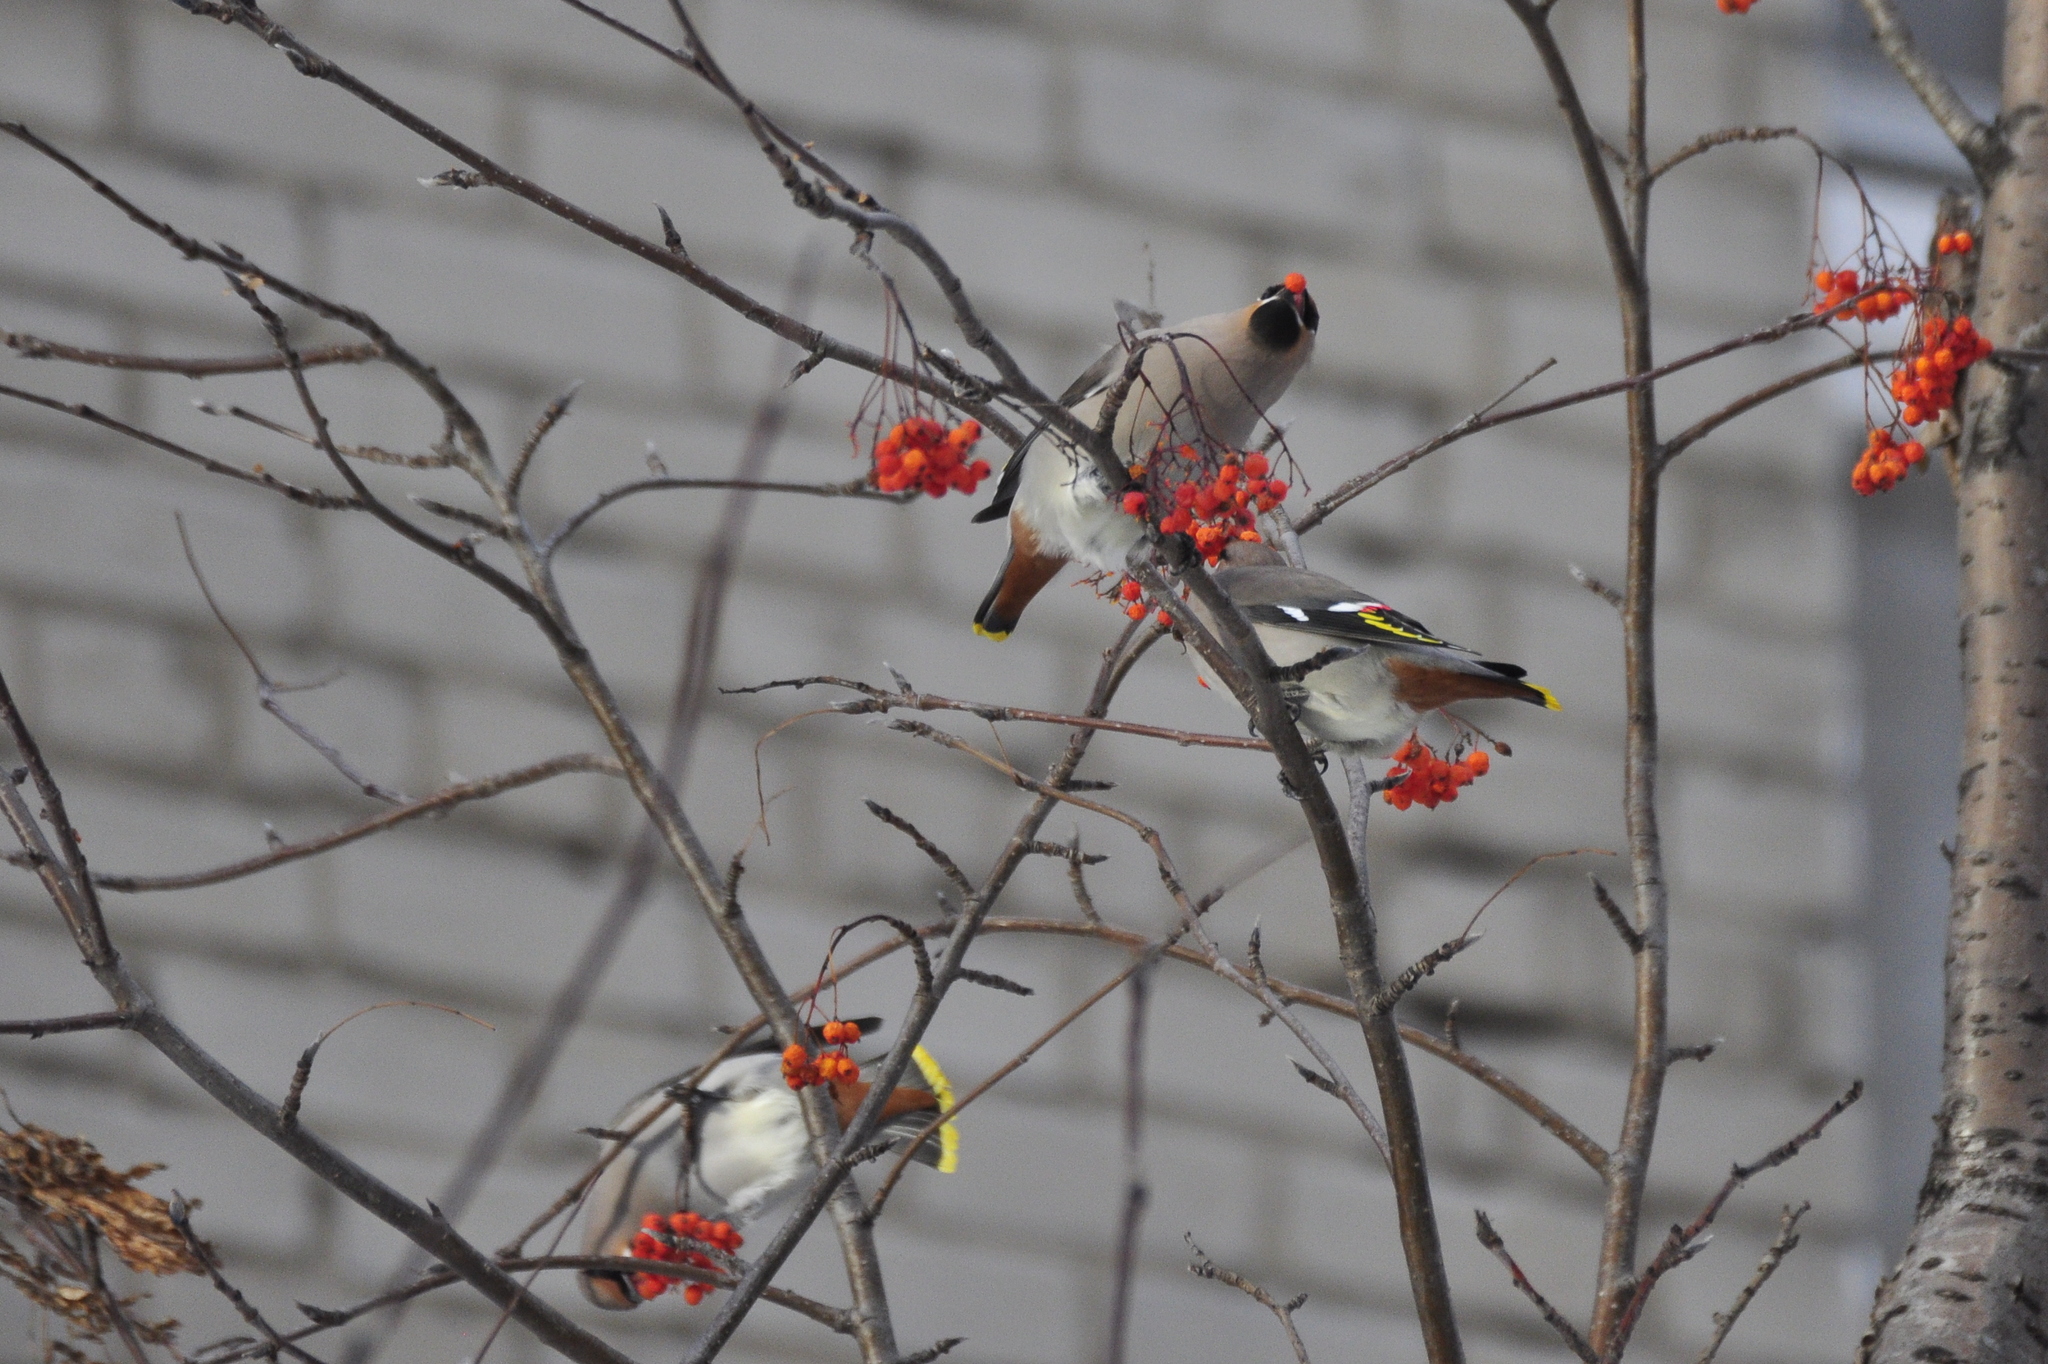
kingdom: Animalia
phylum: Chordata
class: Aves
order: Passeriformes
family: Bombycillidae
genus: Bombycilla
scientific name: Bombycilla garrulus
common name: Bohemian waxwing
